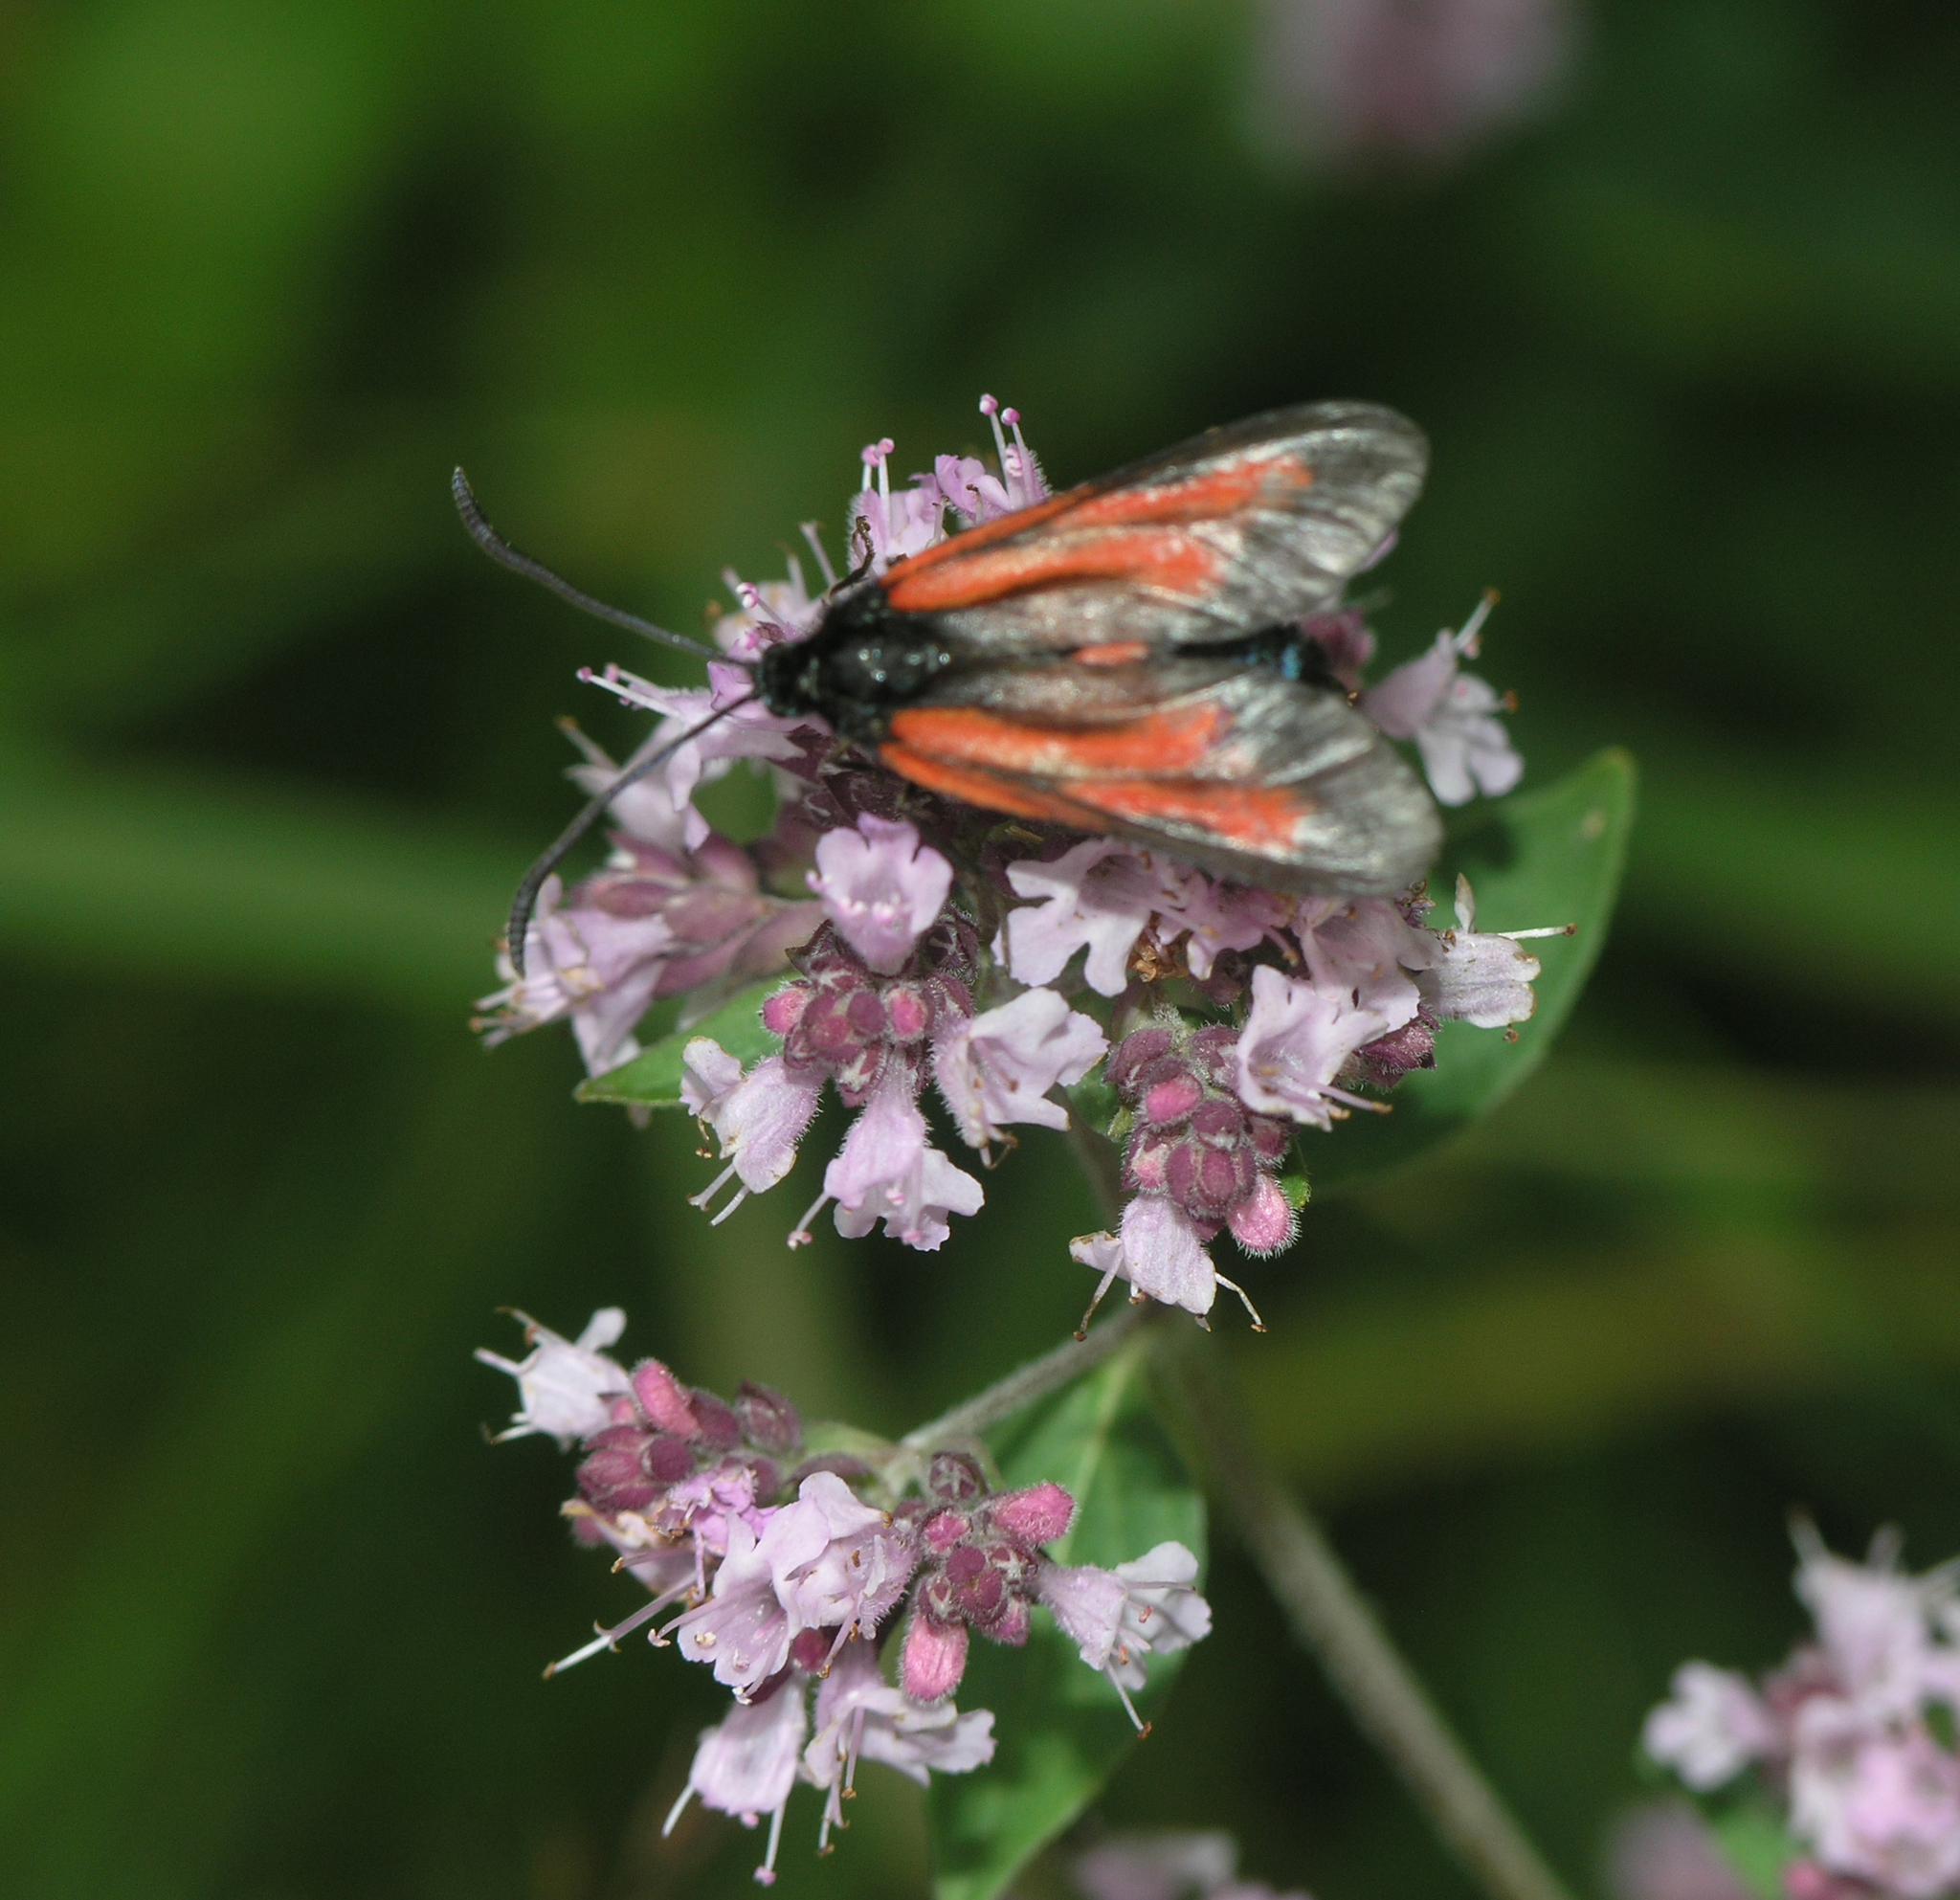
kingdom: Animalia
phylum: Arthropoda
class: Insecta
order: Lepidoptera
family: Zygaenidae
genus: Zygaena
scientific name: Zygaena osterodensis
